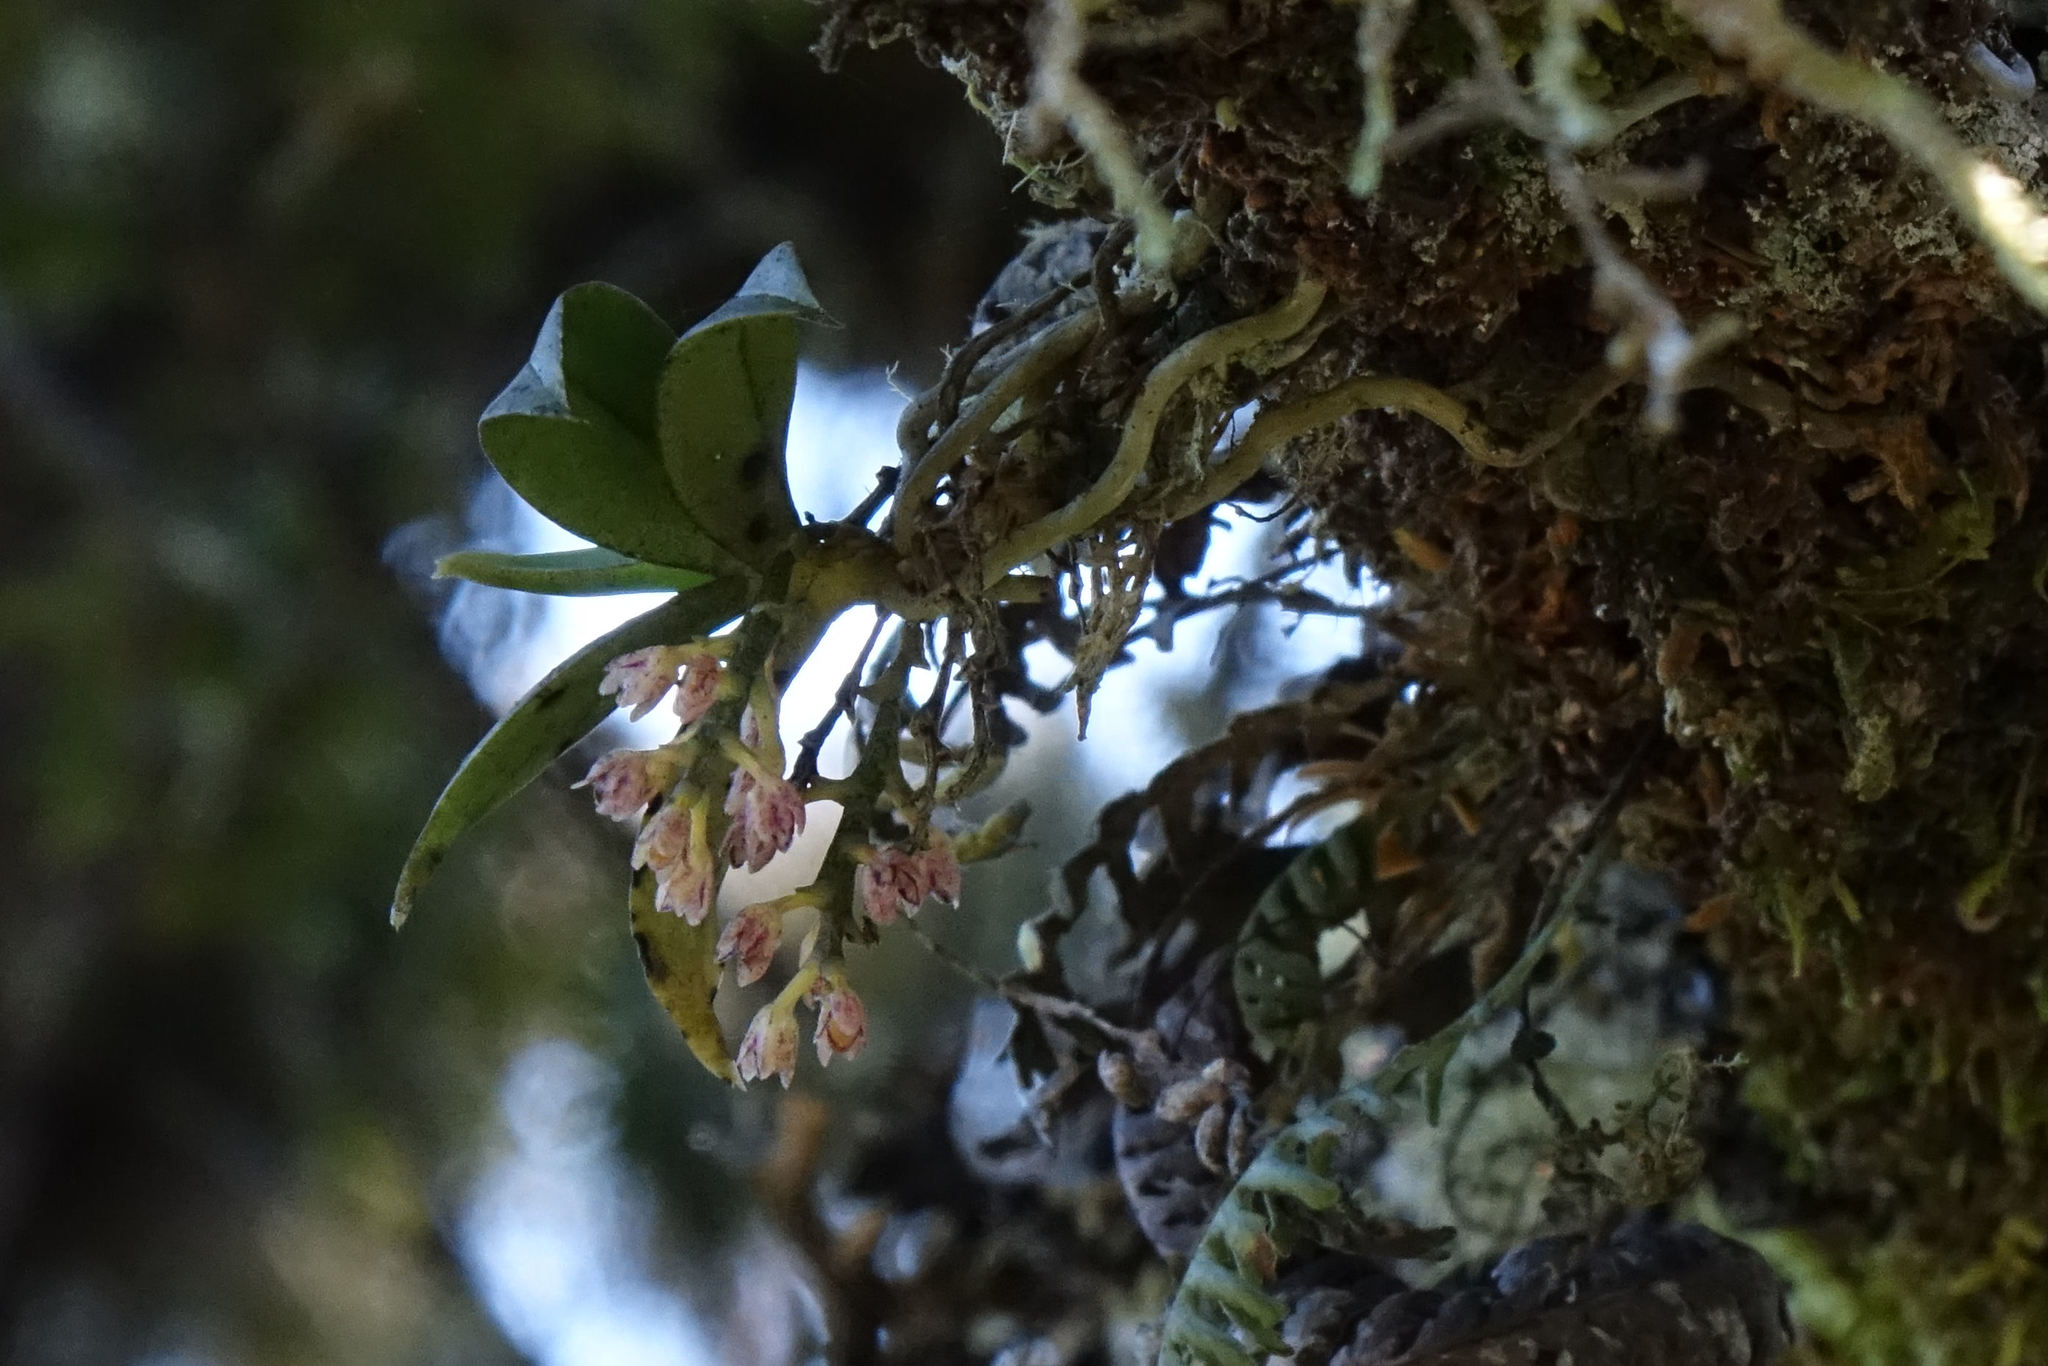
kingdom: Plantae
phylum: Tracheophyta
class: Liliopsida
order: Asparagales
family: Orchidaceae
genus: Drymoanthus
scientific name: Drymoanthus adversus
